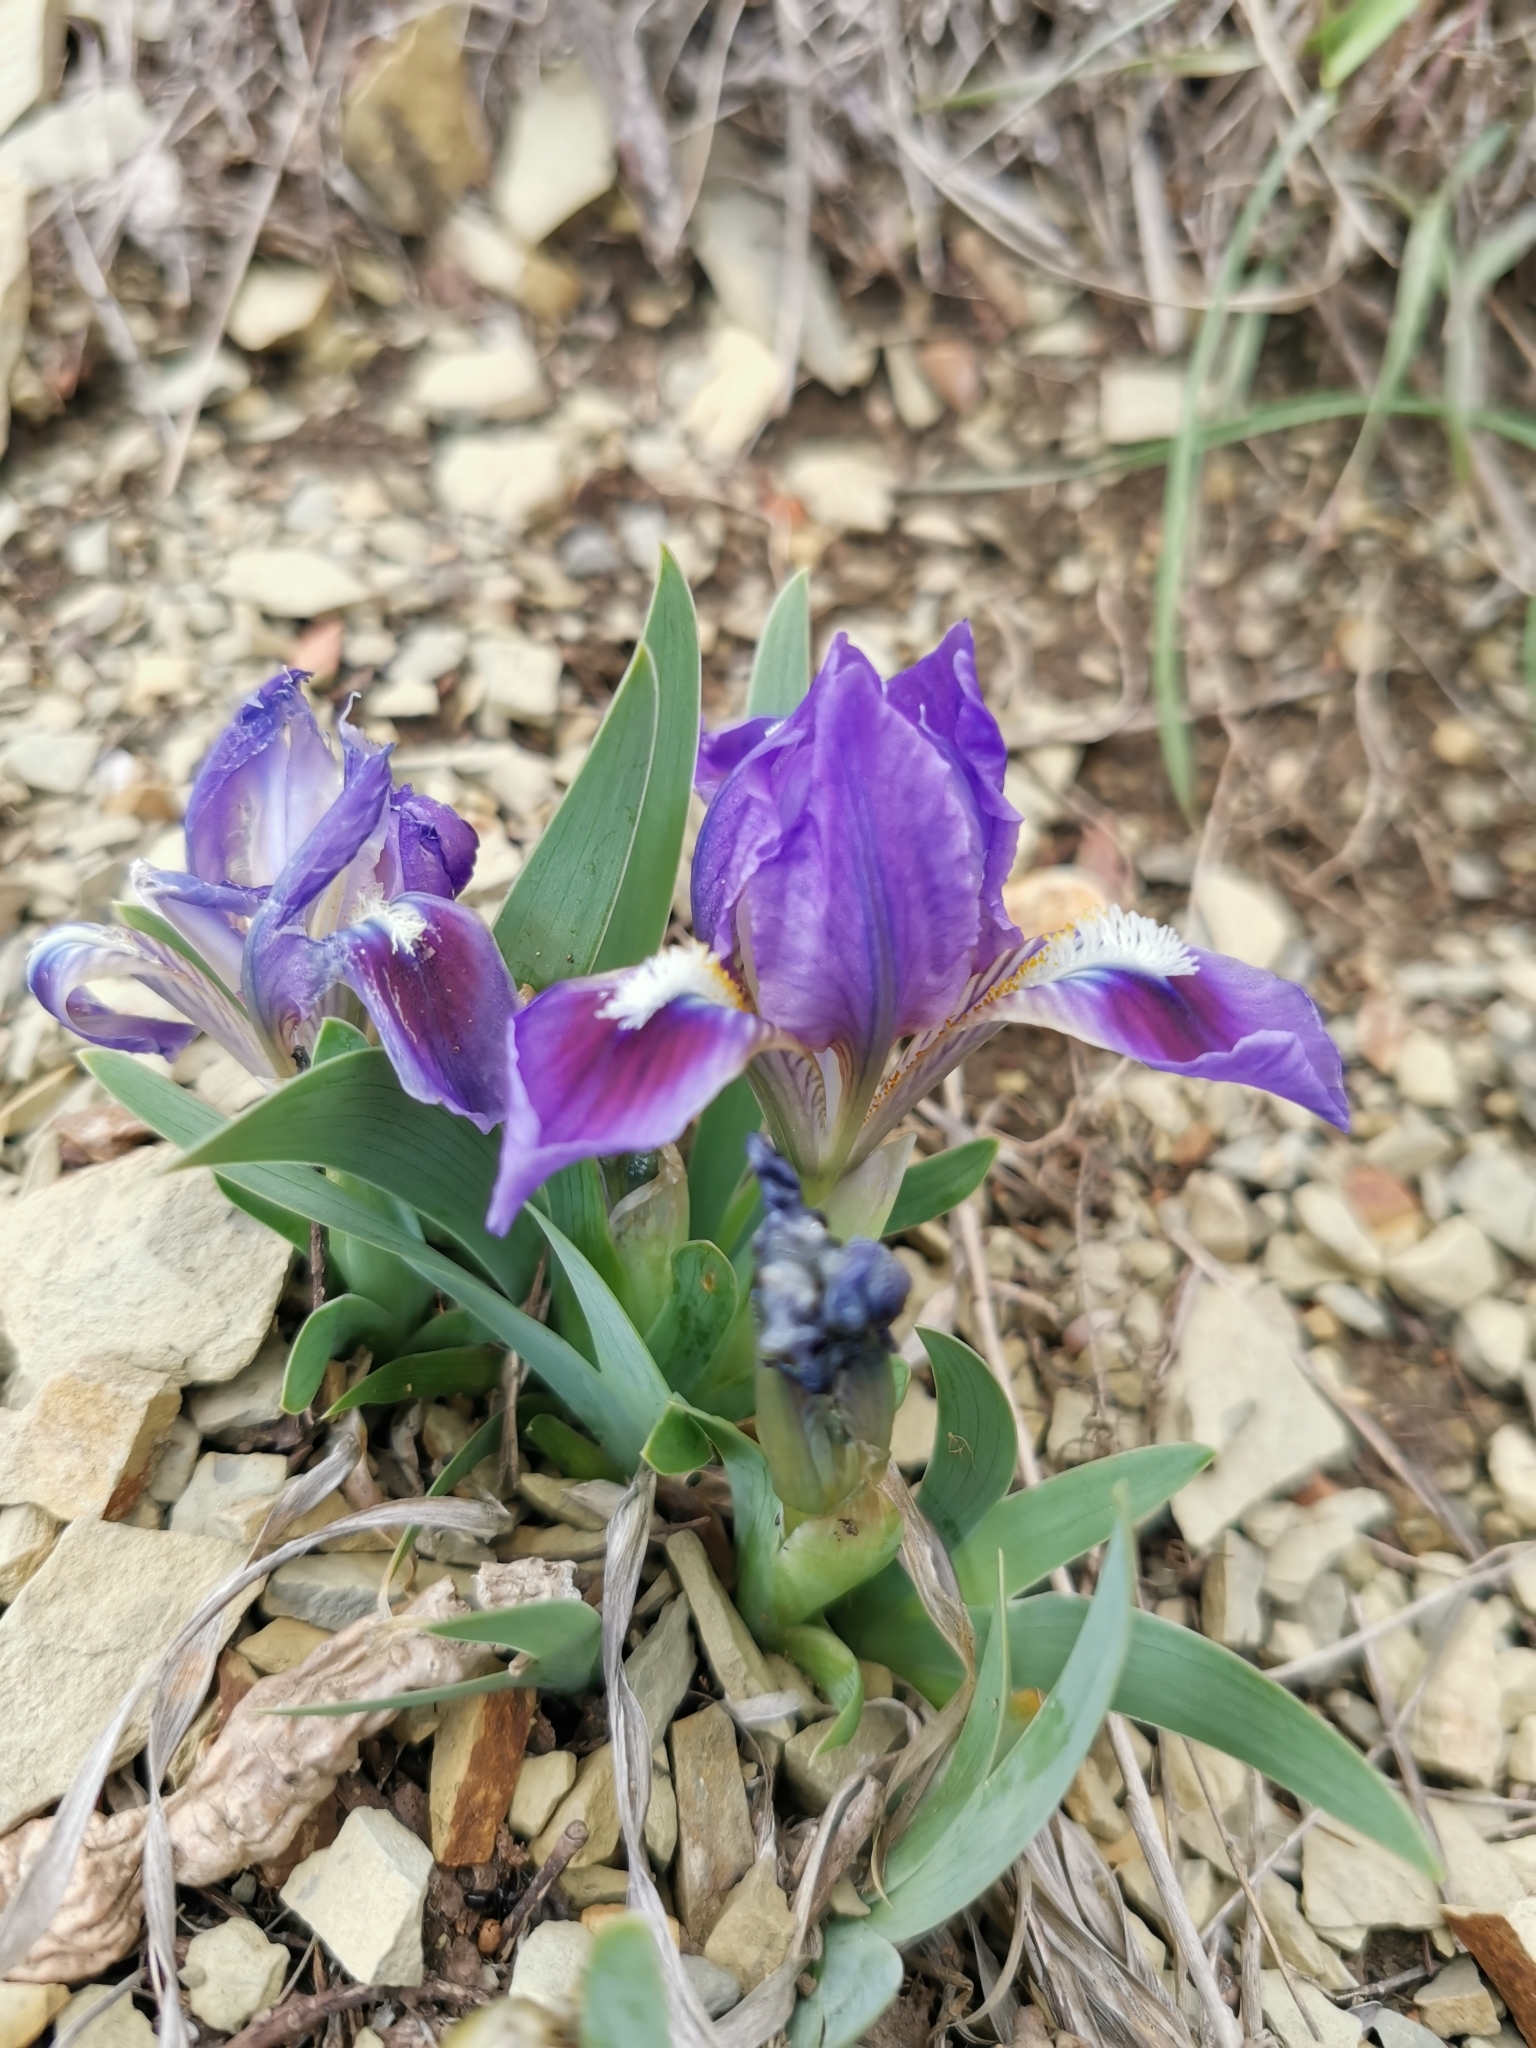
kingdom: Plantae
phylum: Tracheophyta
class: Liliopsida
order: Asparagales
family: Iridaceae
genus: Iris
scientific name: Iris pumila
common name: Dwarf iris
